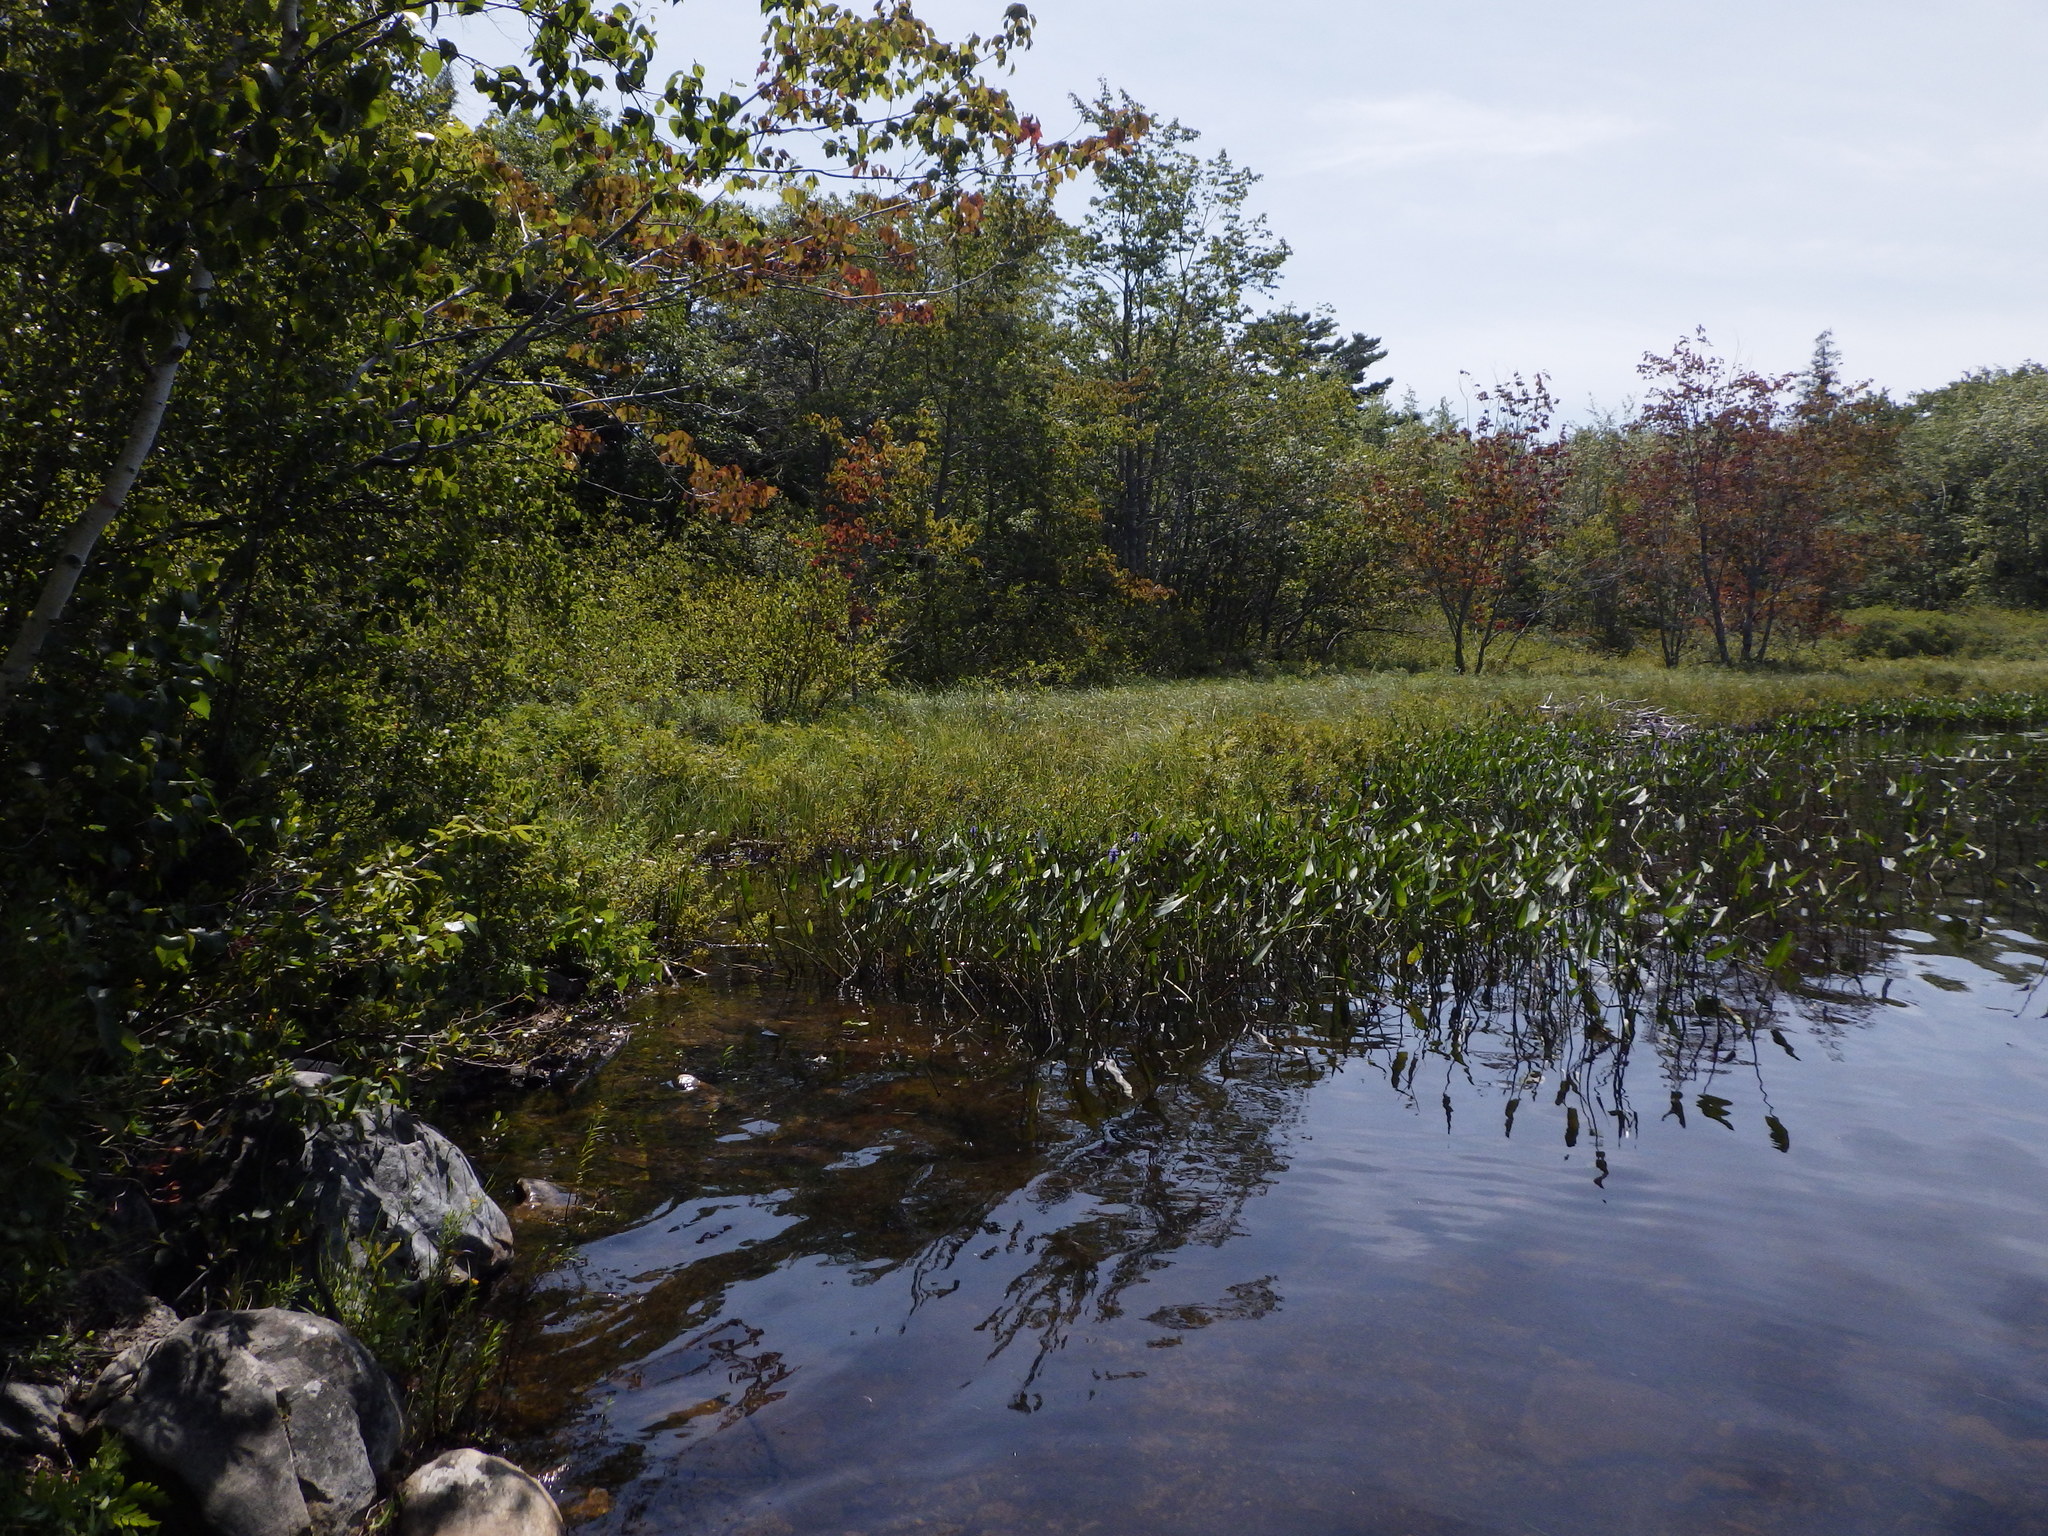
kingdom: Plantae
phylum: Tracheophyta
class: Liliopsida
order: Commelinales
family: Pontederiaceae
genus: Pontederia
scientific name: Pontederia cordata
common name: Pickerelweed
